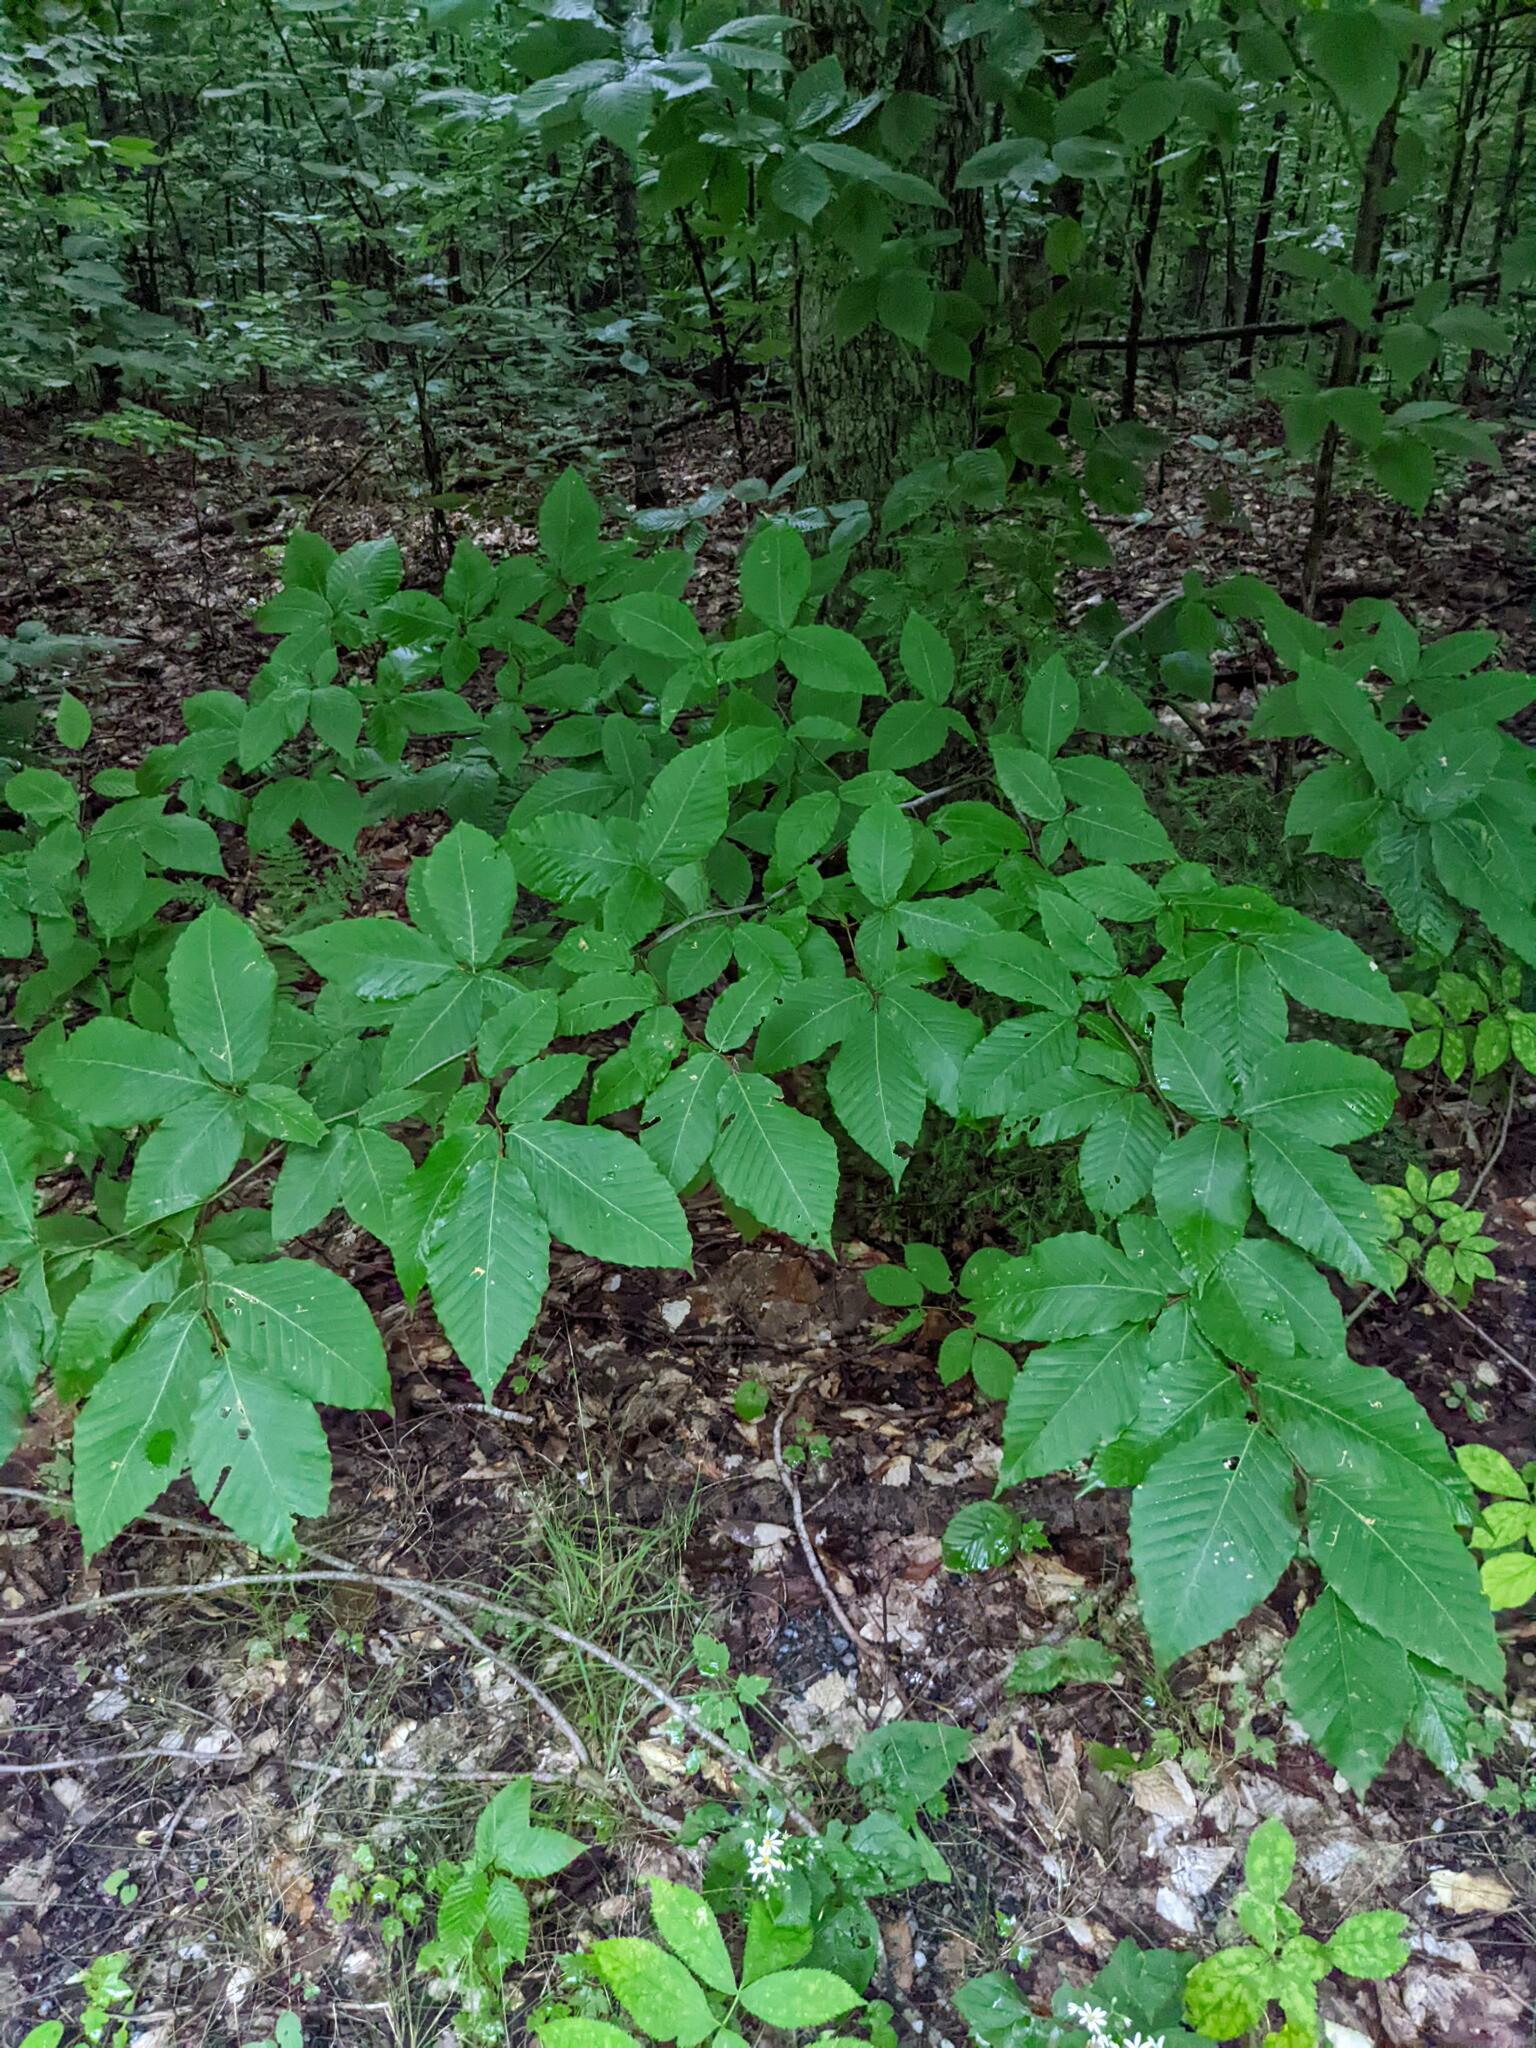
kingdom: Plantae
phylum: Tracheophyta
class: Magnoliopsida
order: Fagales
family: Fagaceae
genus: Fagus
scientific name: Fagus grandifolia
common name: American beech
